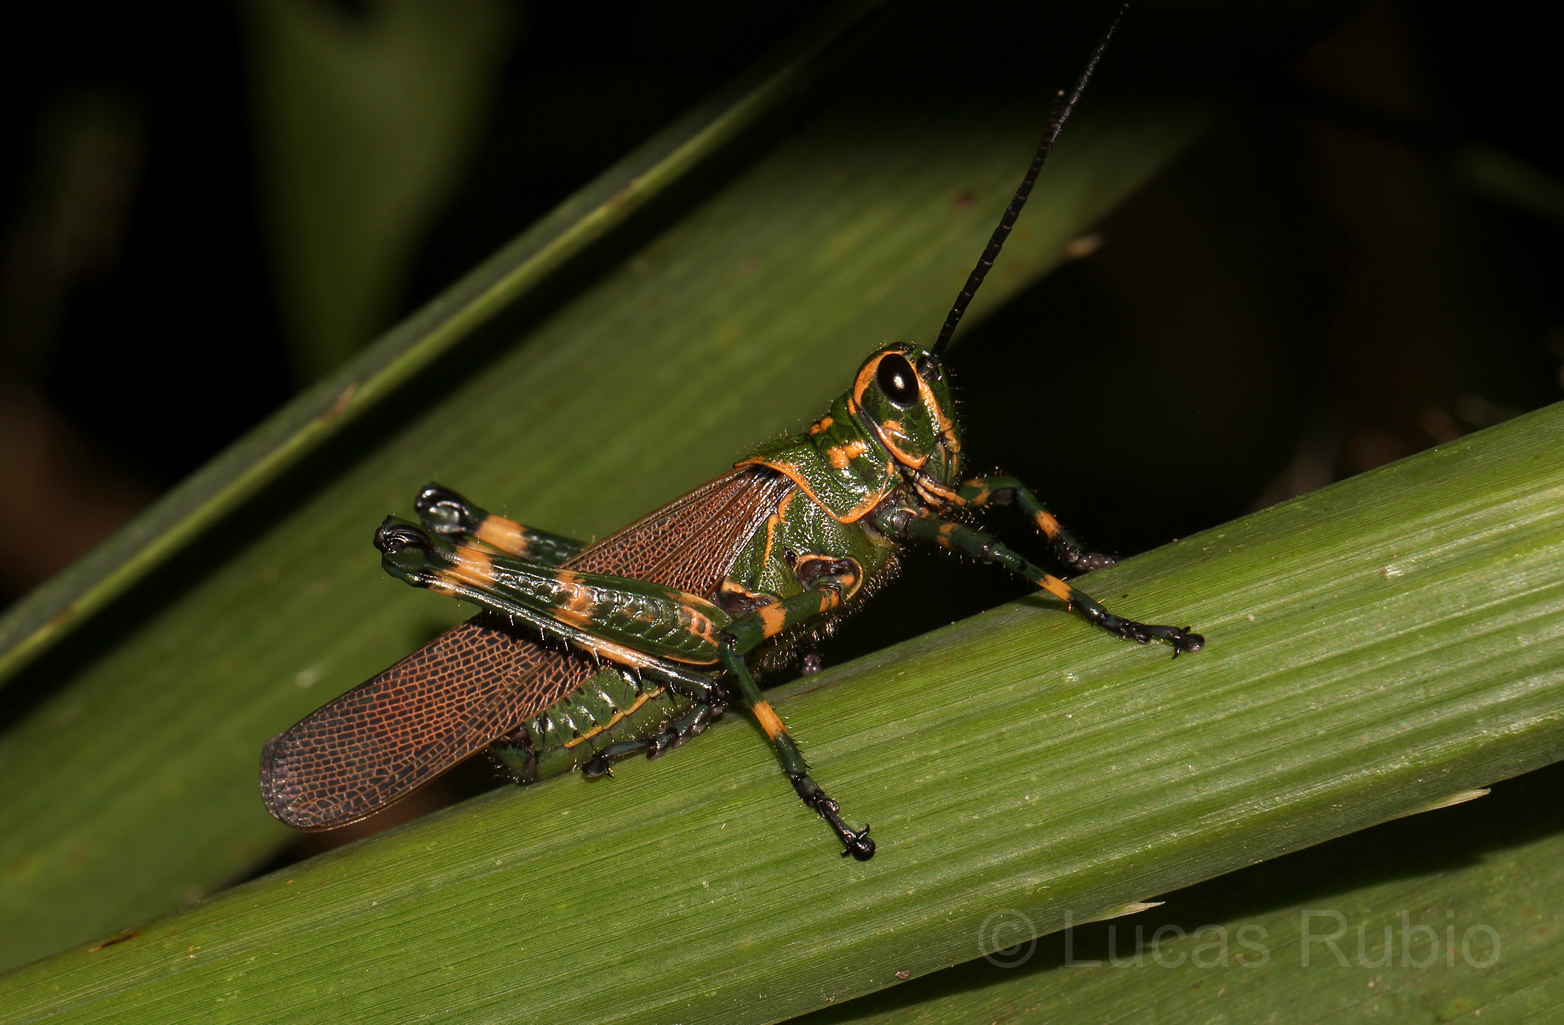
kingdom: Animalia
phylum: Arthropoda
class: Insecta
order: Orthoptera
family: Romaleidae
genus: Chromacris
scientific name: Chromacris speciosa
